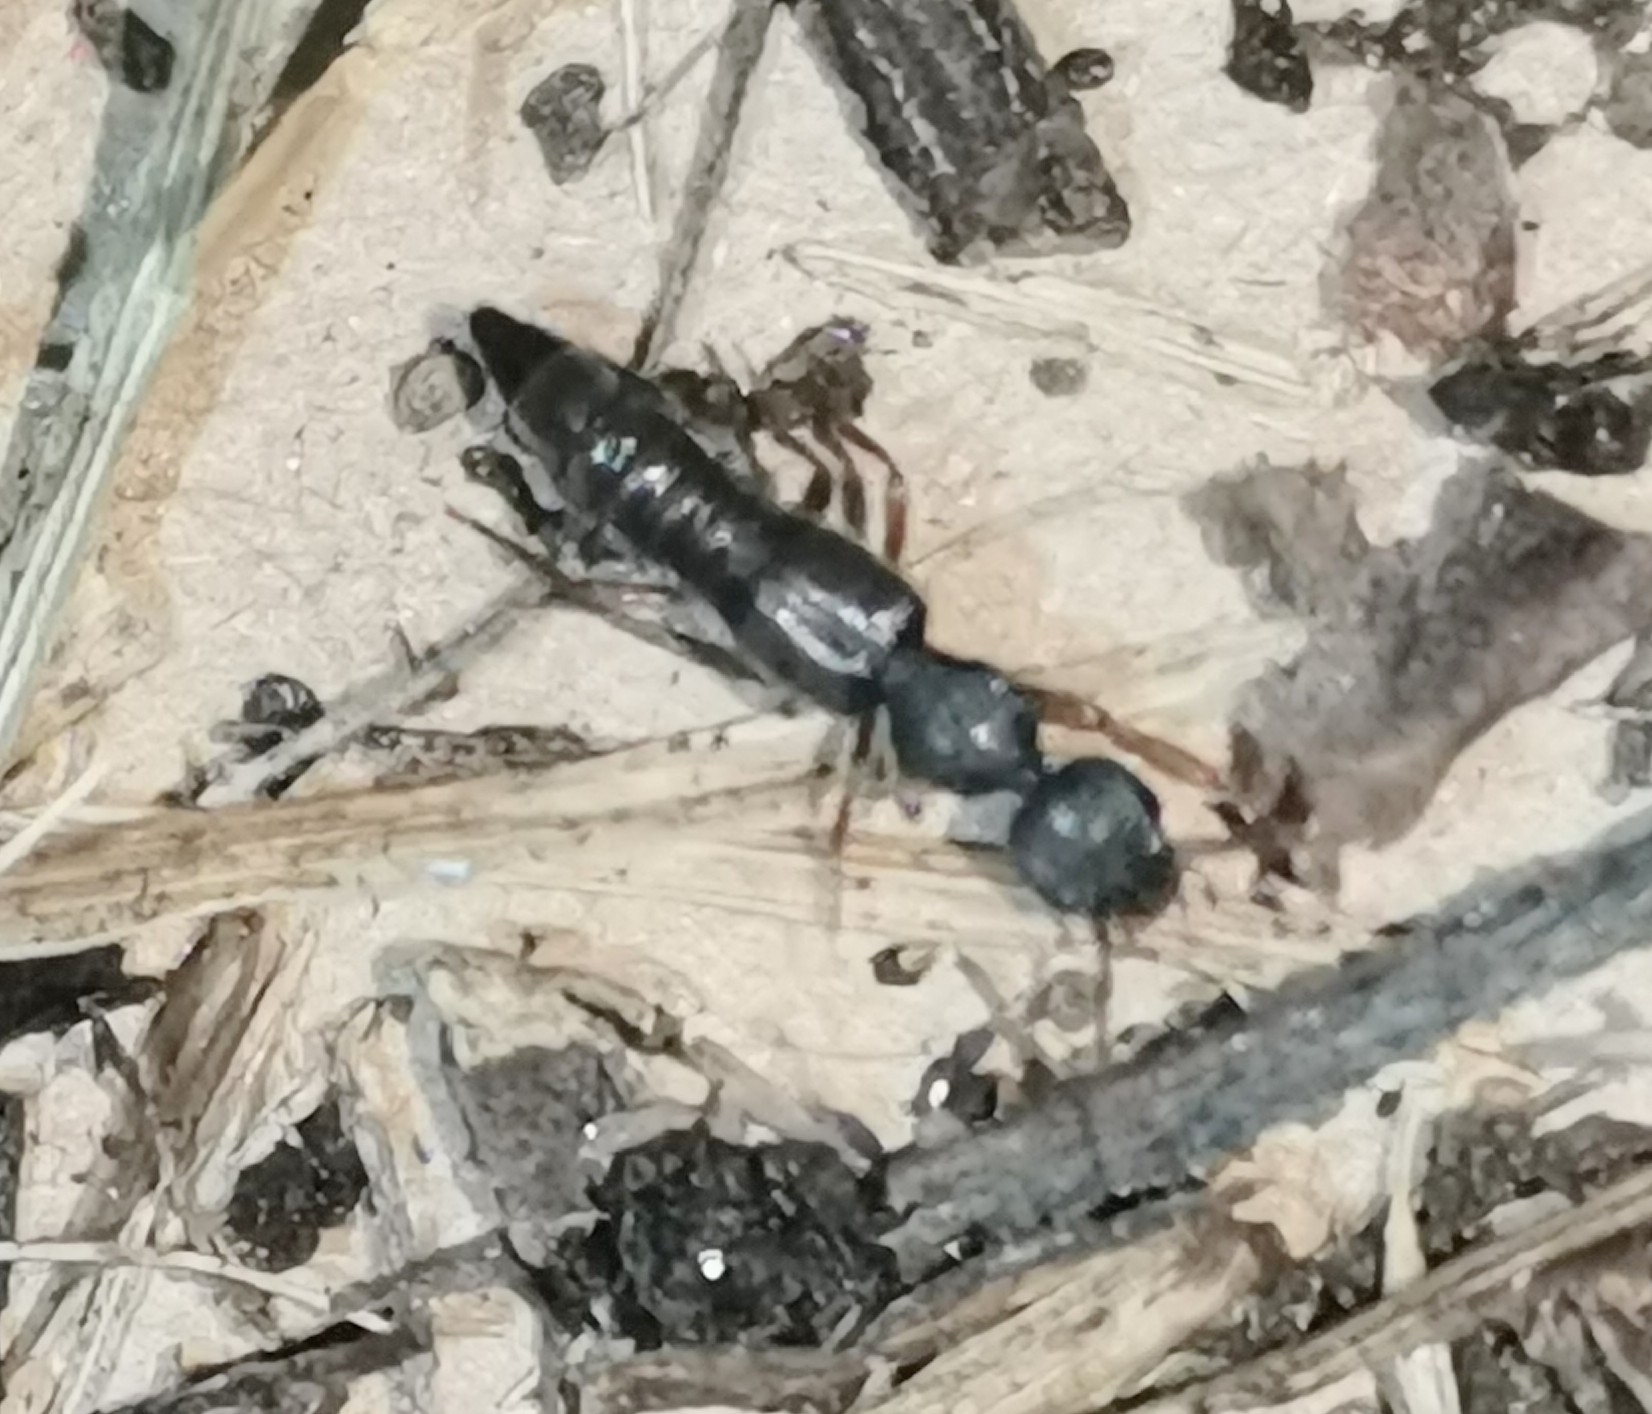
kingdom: Animalia
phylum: Arthropoda
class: Insecta
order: Coleoptera
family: Staphylinidae
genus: Rugilus
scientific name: Rugilus rufipes
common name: Staph beetle
